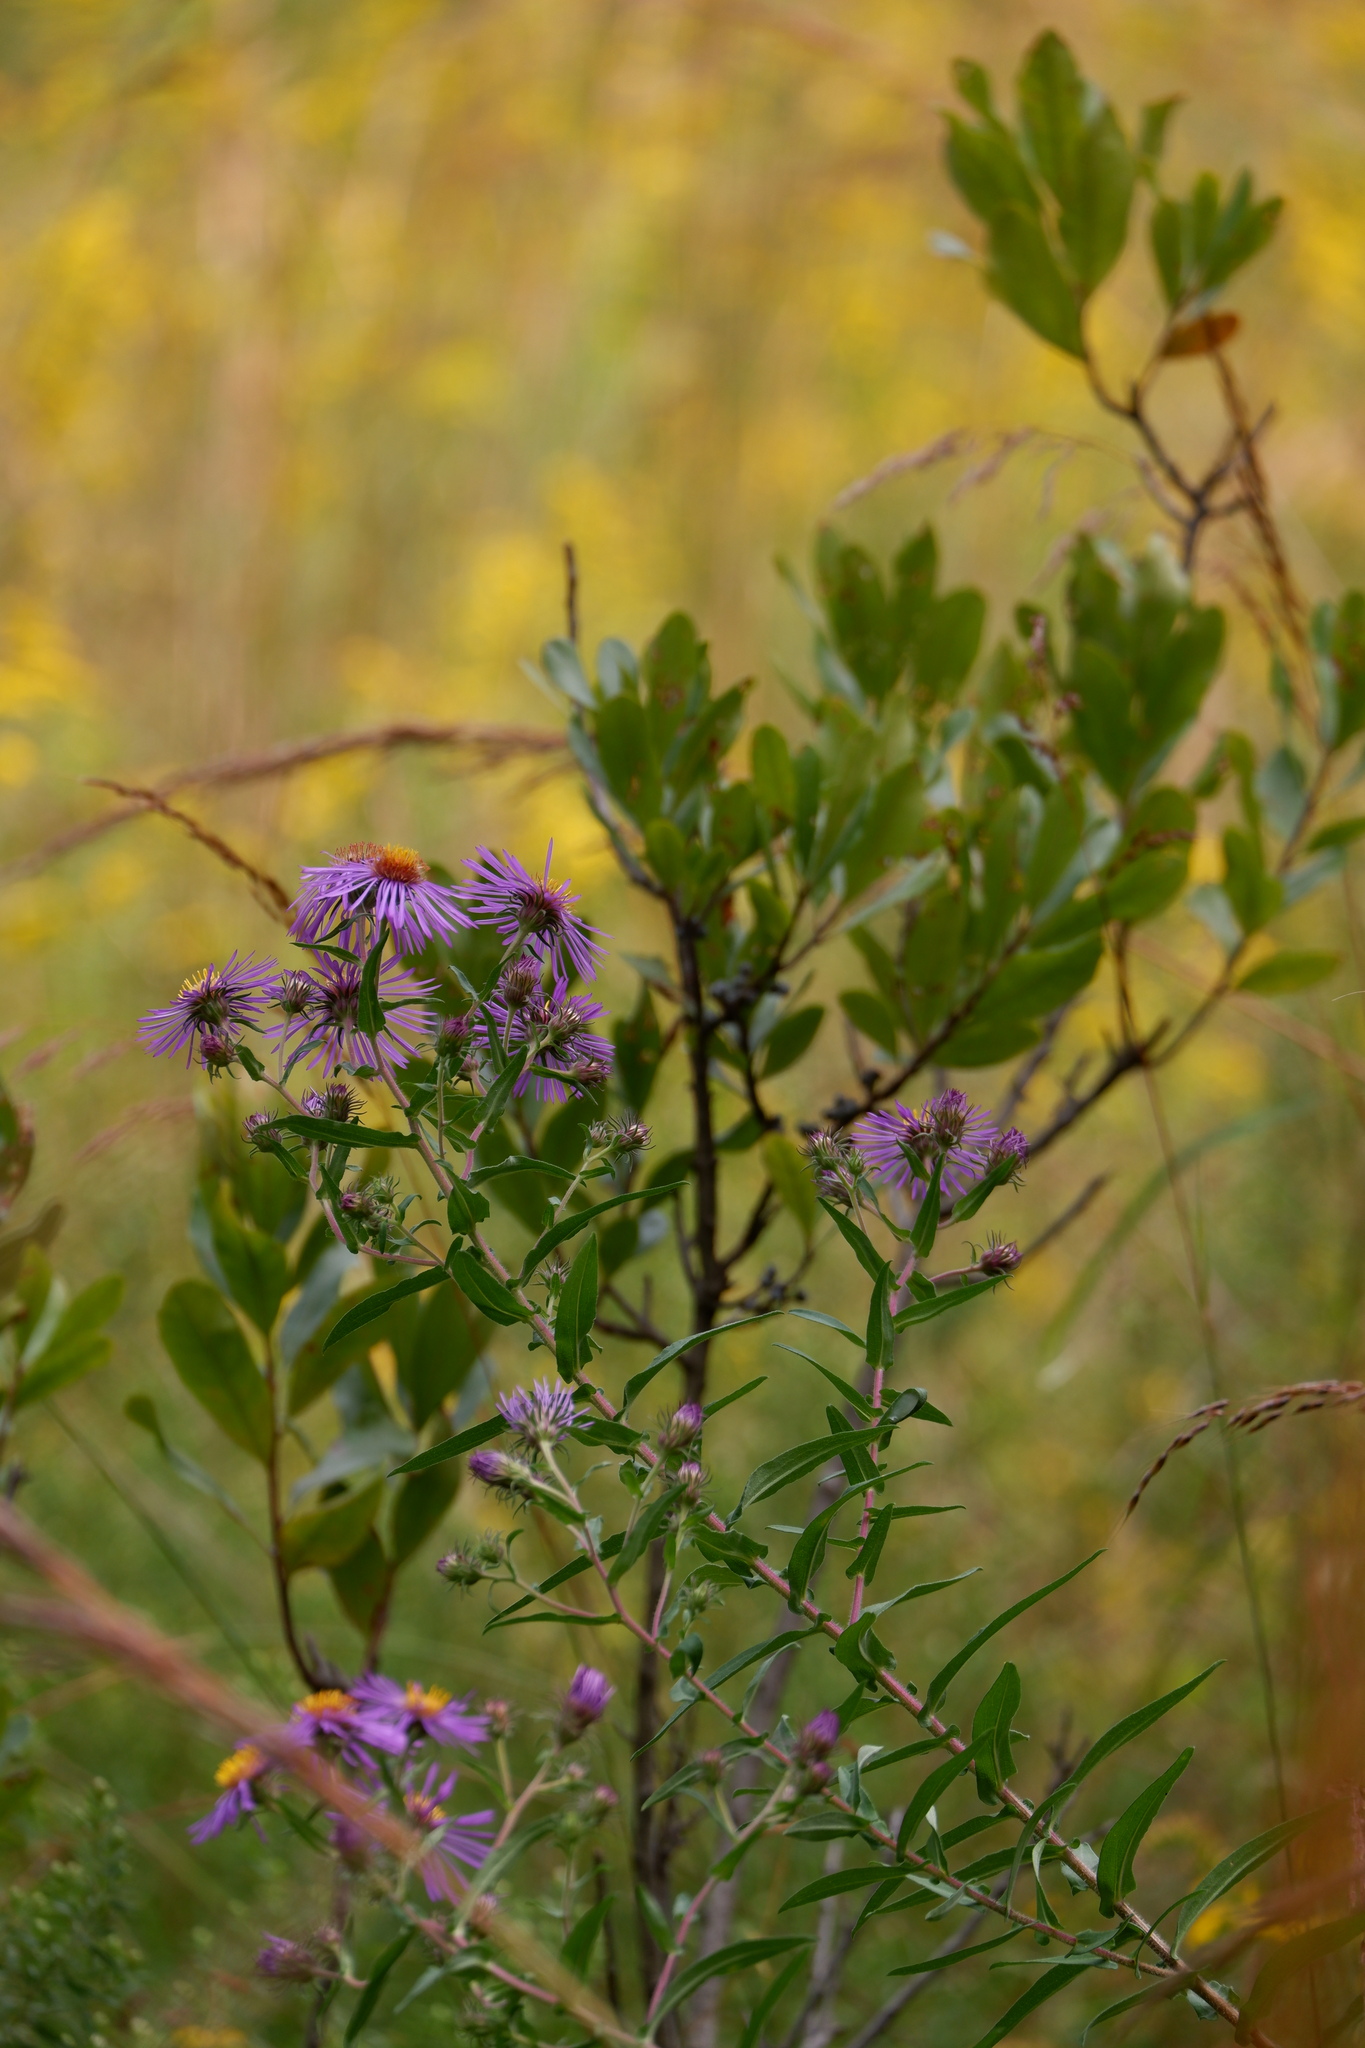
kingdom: Plantae
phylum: Tracheophyta
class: Magnoliopsida
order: Asterales
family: Asteraceae
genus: Symphyotrichum
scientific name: Symphyotrichum novae-angliae
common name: Michaelmas daisy
